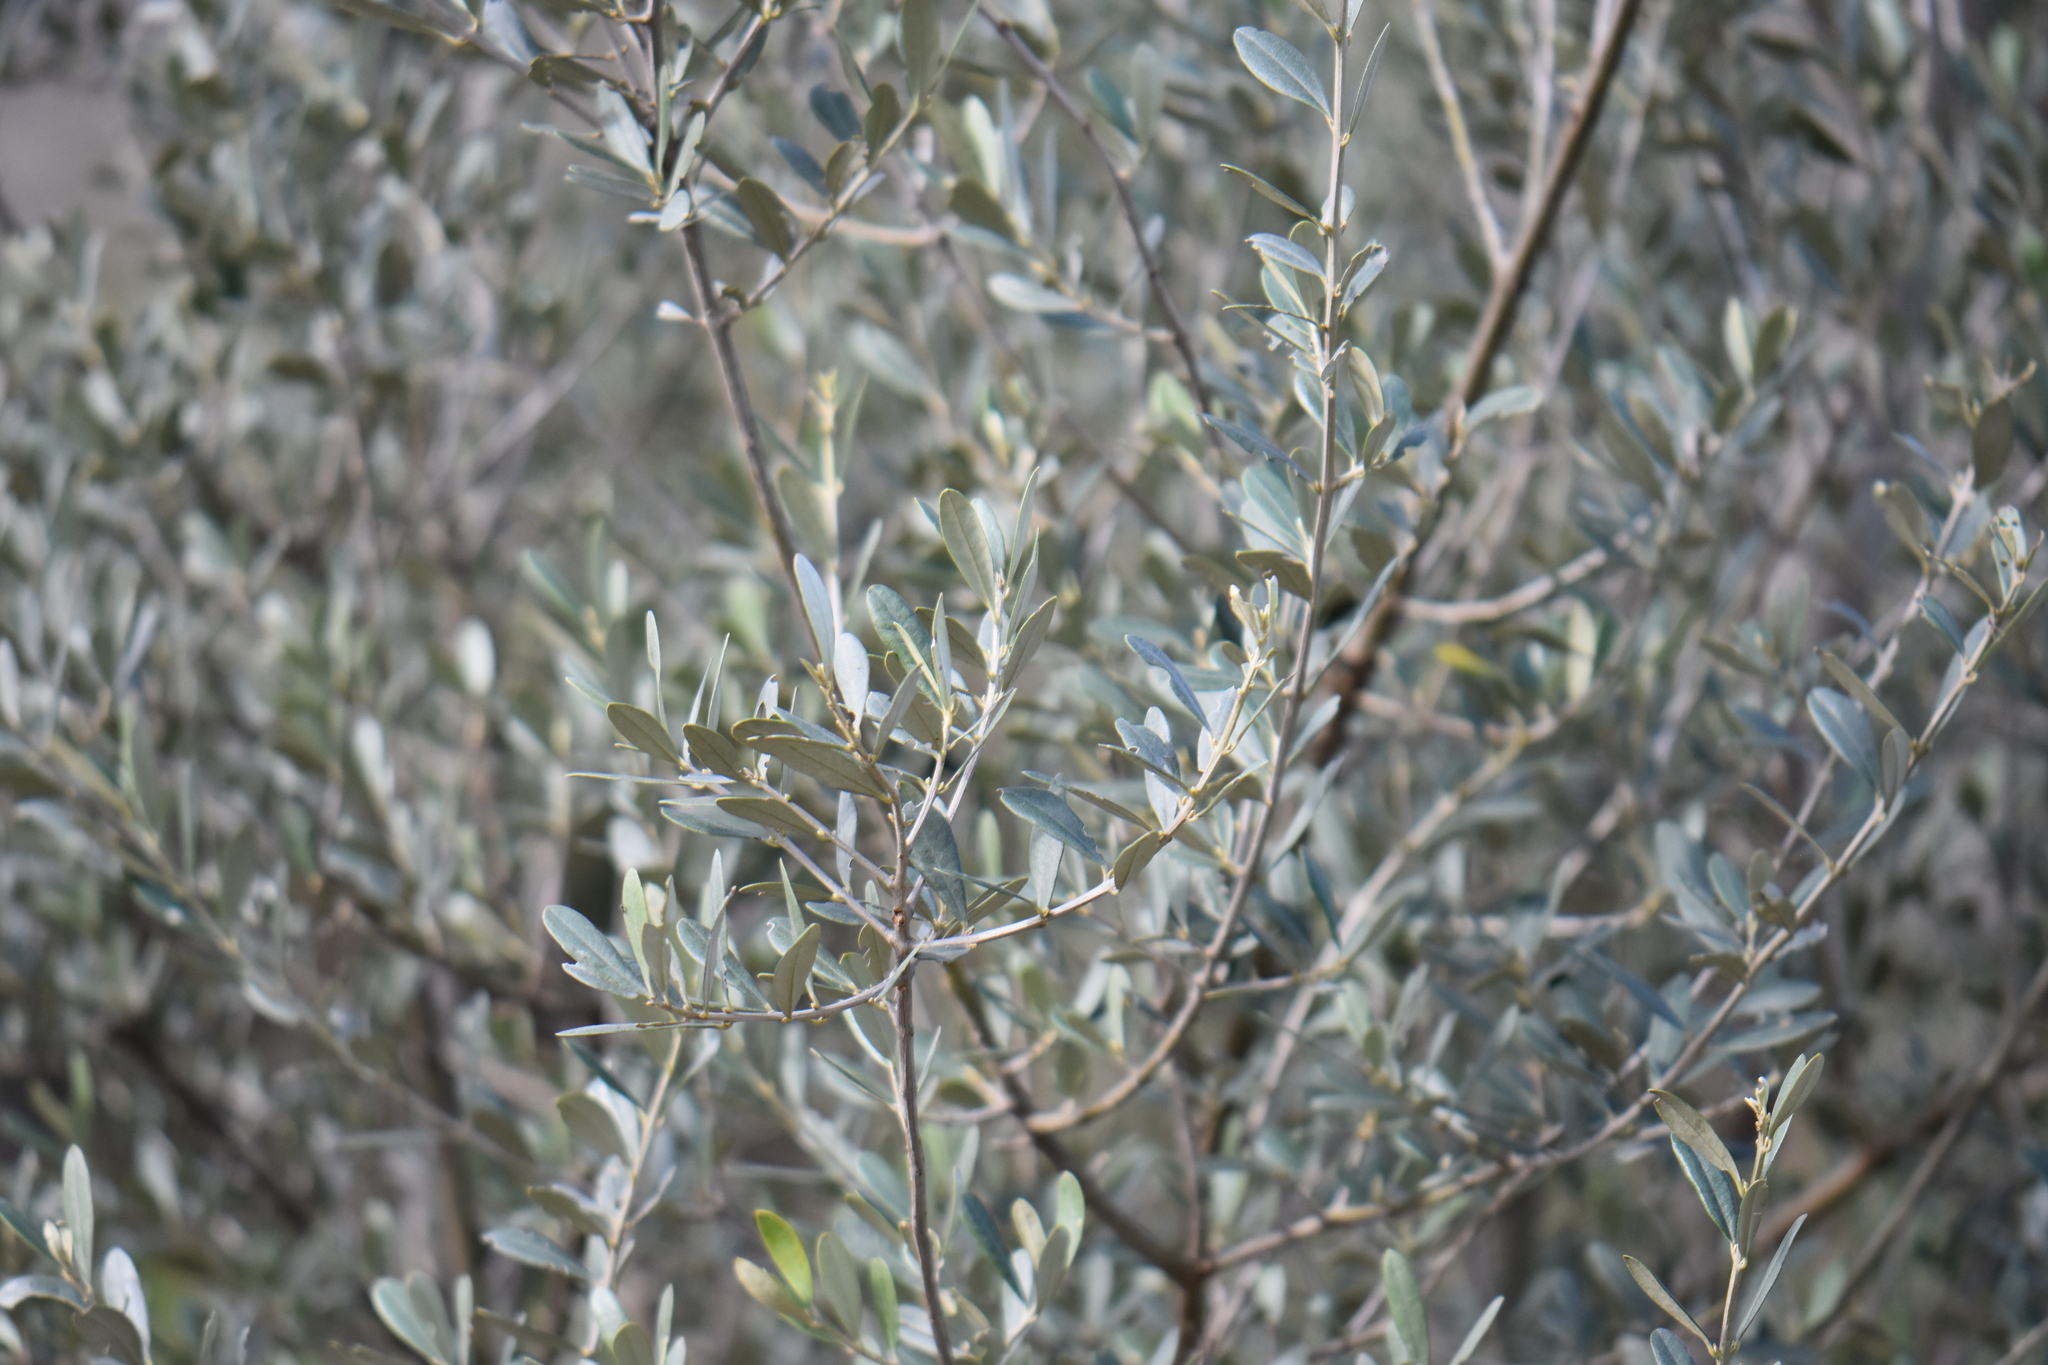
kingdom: Plantae
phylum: Tracheophyta
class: Magnoliopsida
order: Lamiales
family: Oleaceae
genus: Olea
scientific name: Olea europaea
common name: Olive
